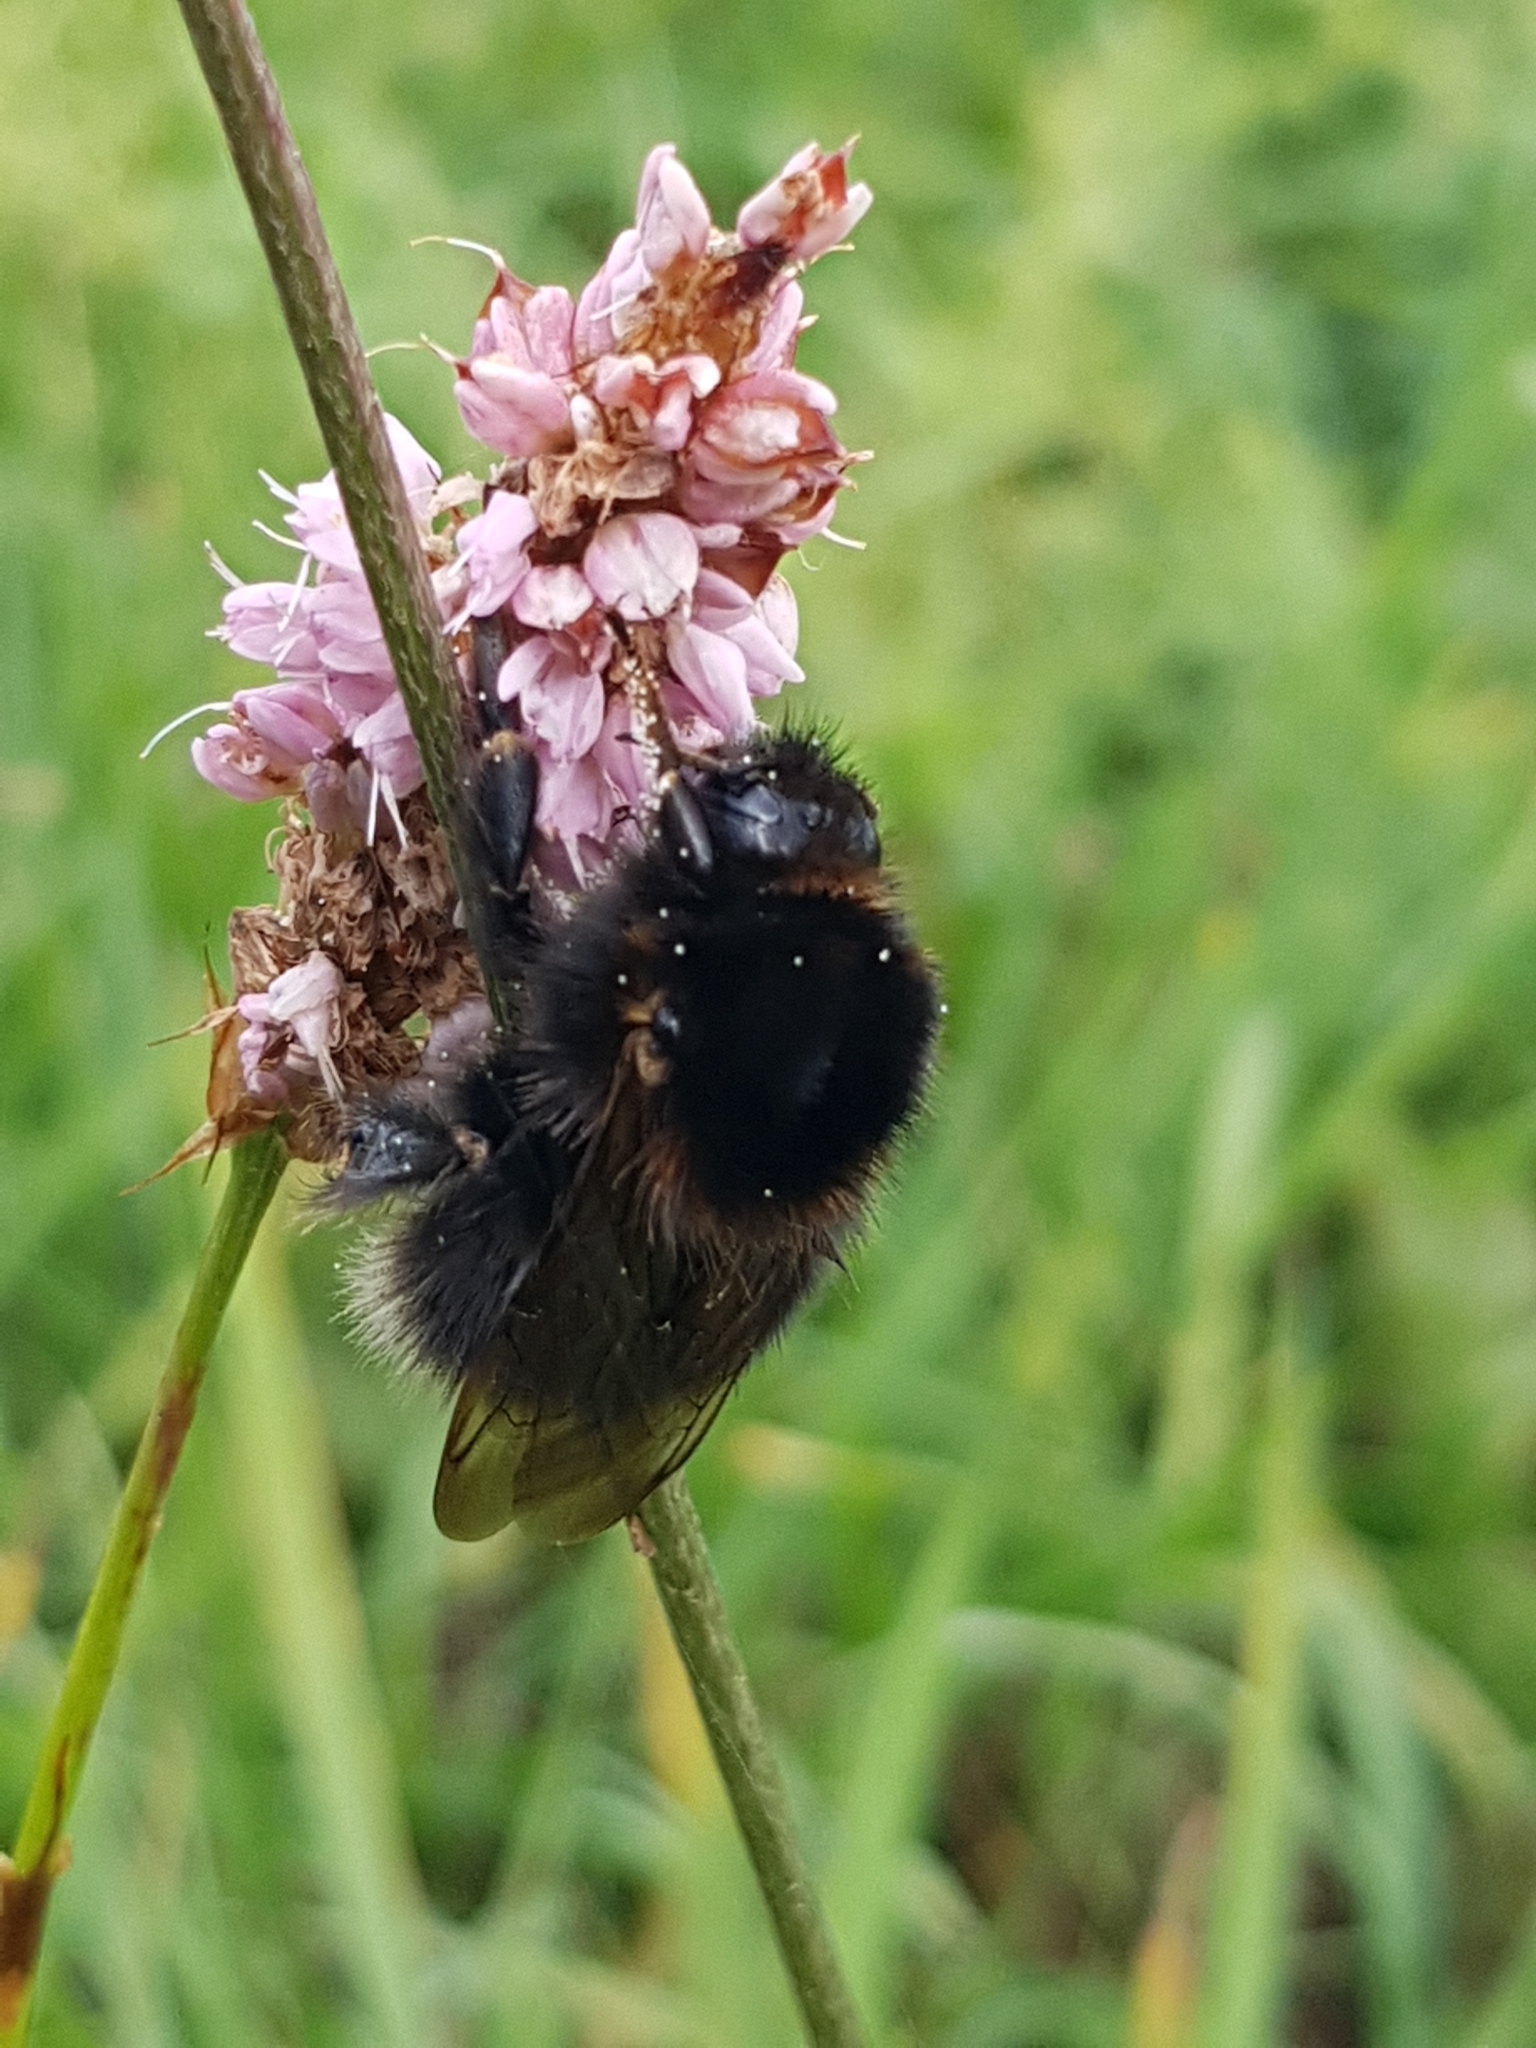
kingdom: Animalia
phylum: Arthropoda
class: Insecta
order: Hymenoptera
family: Apidae
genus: Bombus
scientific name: Bombus hypnorum
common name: New garden bumblebee
